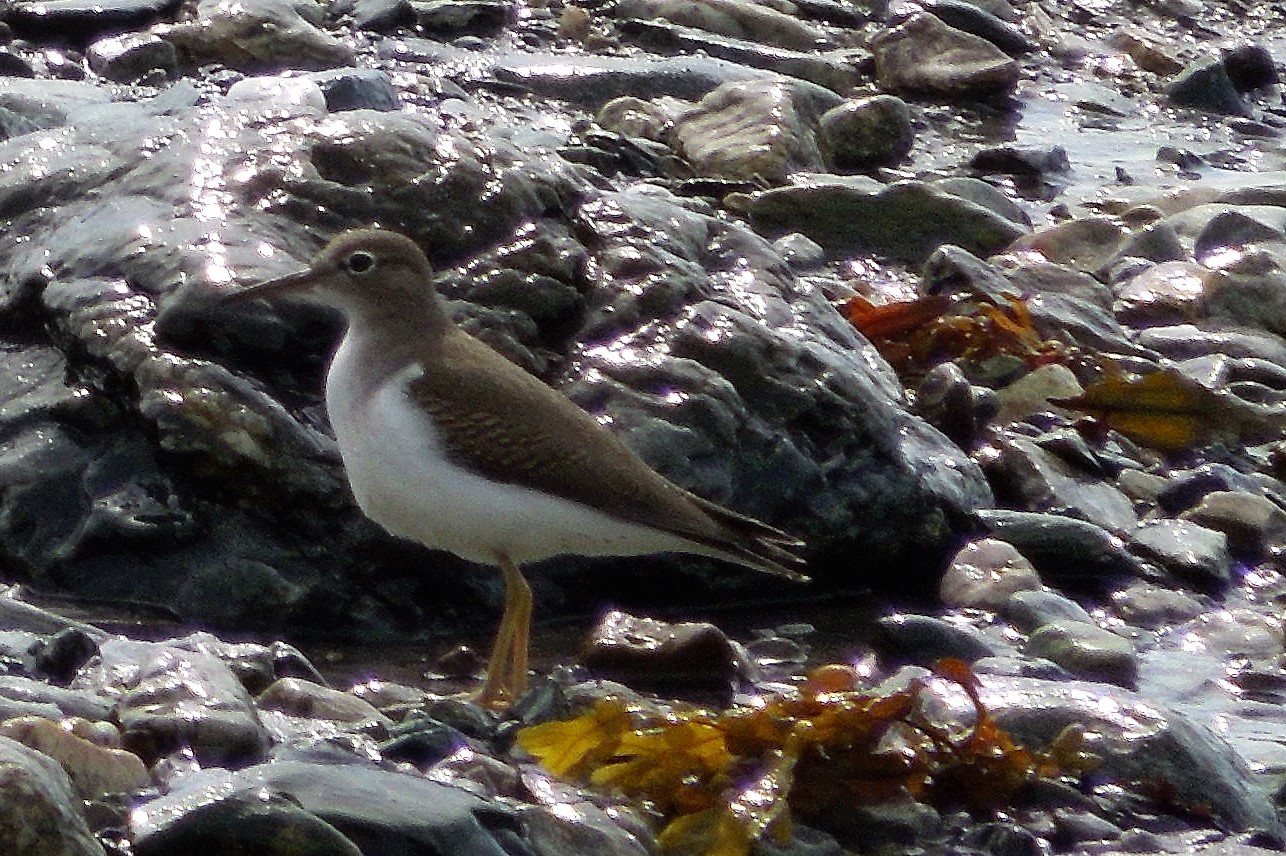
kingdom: Animalia
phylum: Chordata
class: Aves
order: Charadriiformes
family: Scolopacidae
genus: Actitis
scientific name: Actitis macularius
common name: Spotted sandpiper
